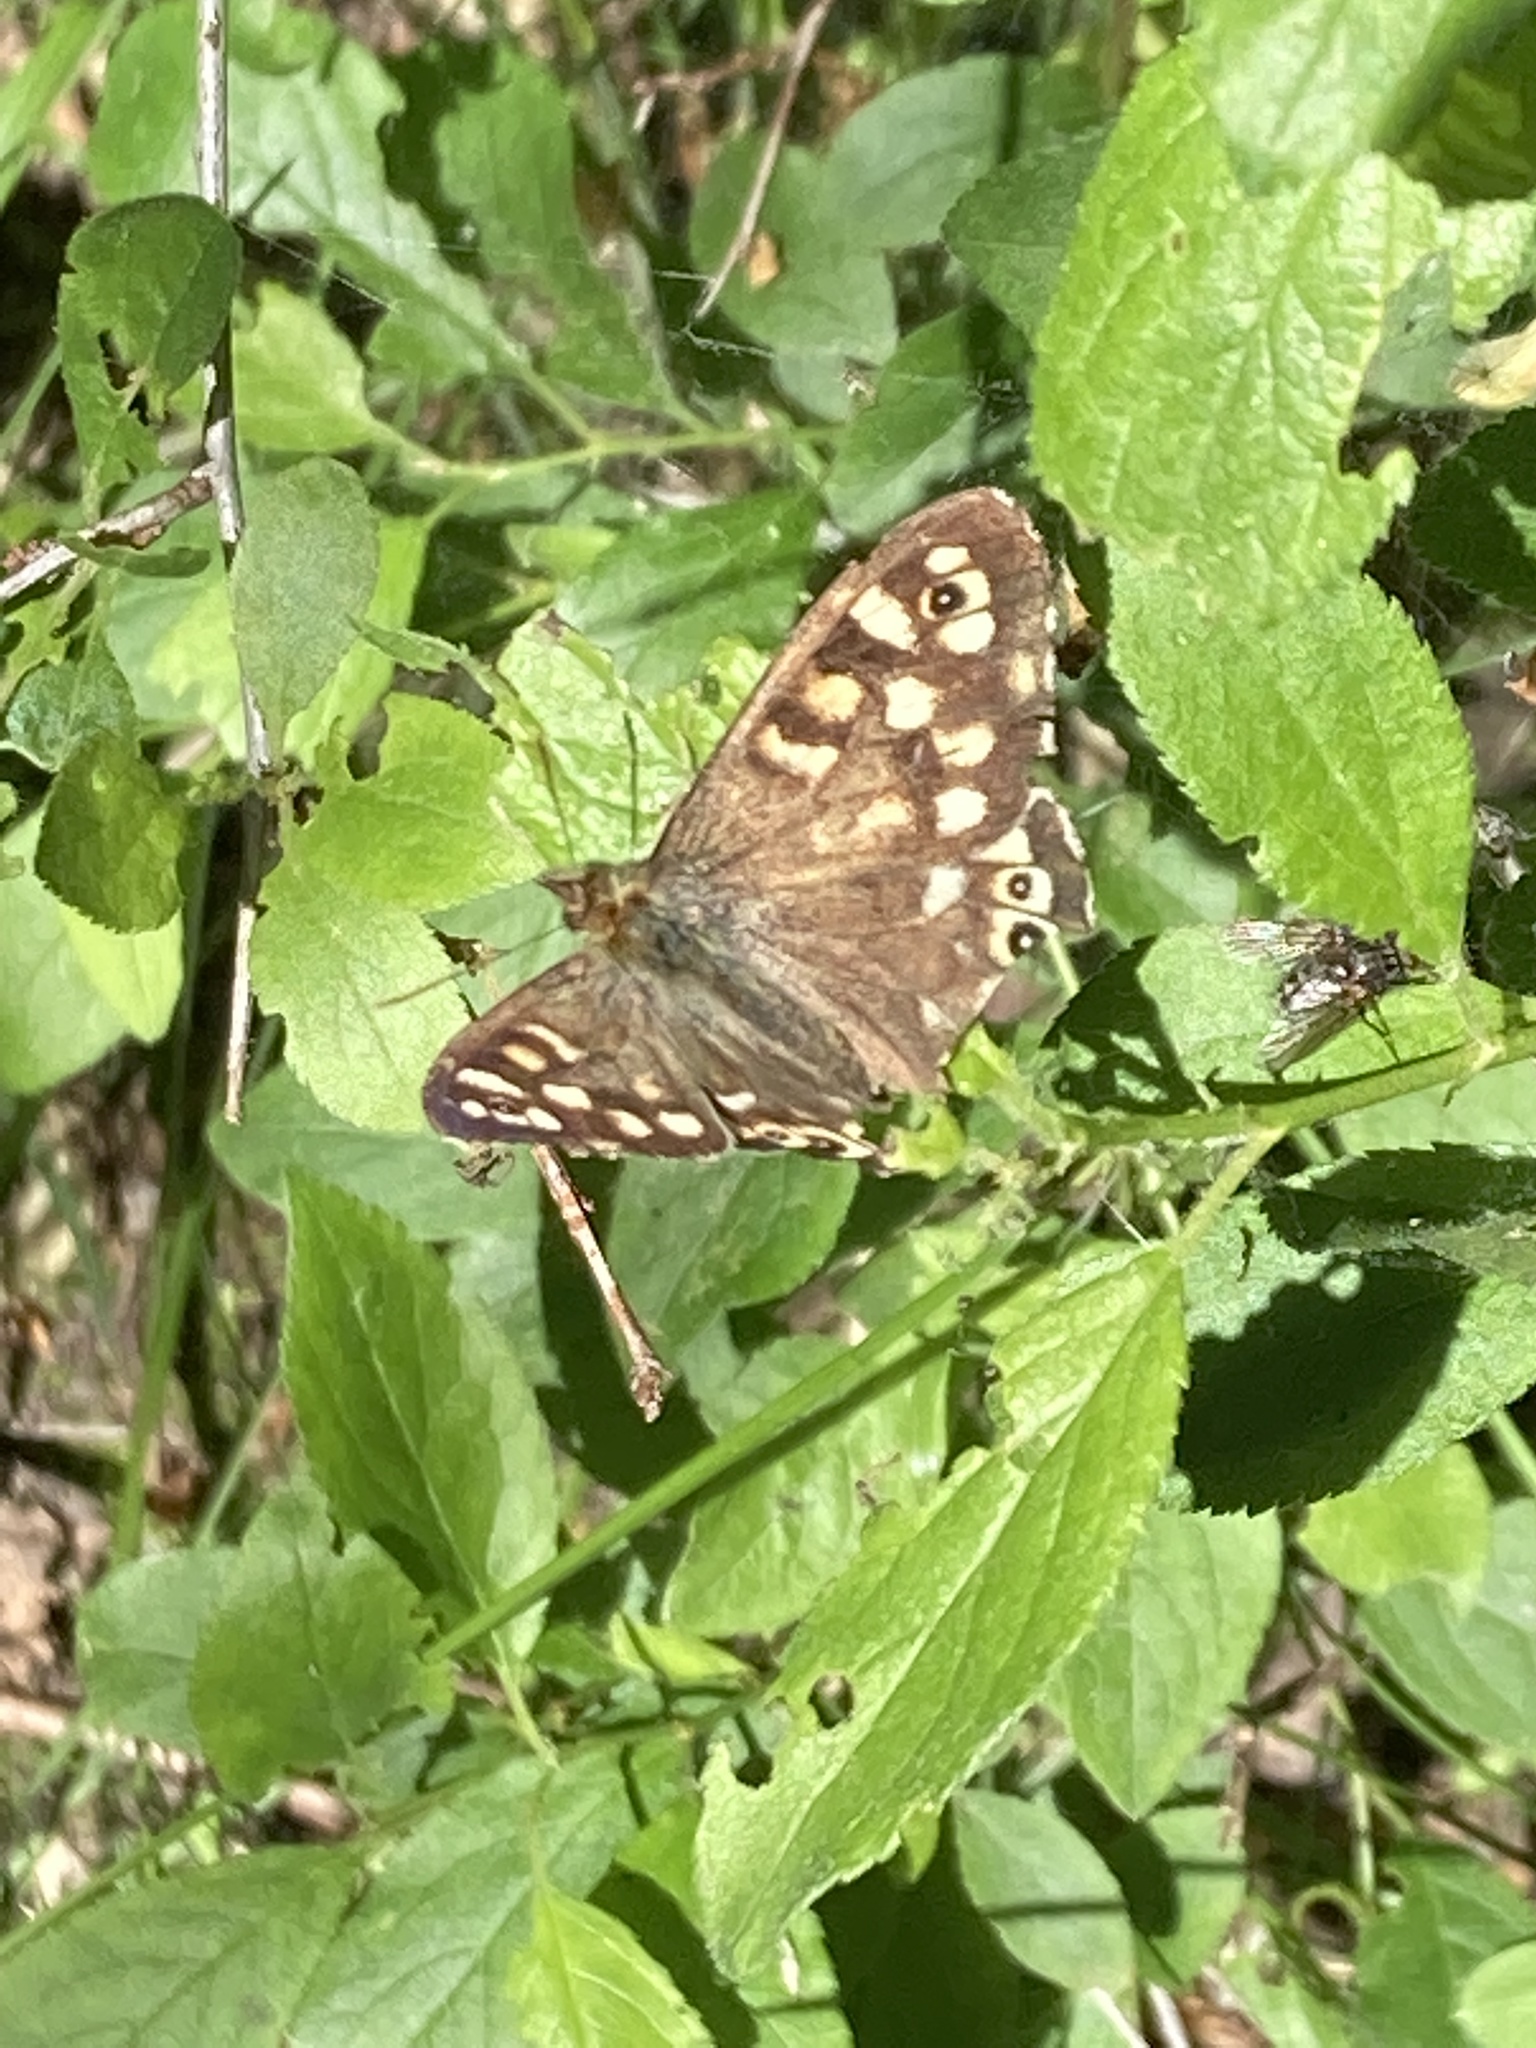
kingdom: Animalia
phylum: Arthropoda
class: Insecta
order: Lepidoptera
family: Nymphalidae
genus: Pararge
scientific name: Pararge aegeria
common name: Speckled wood
